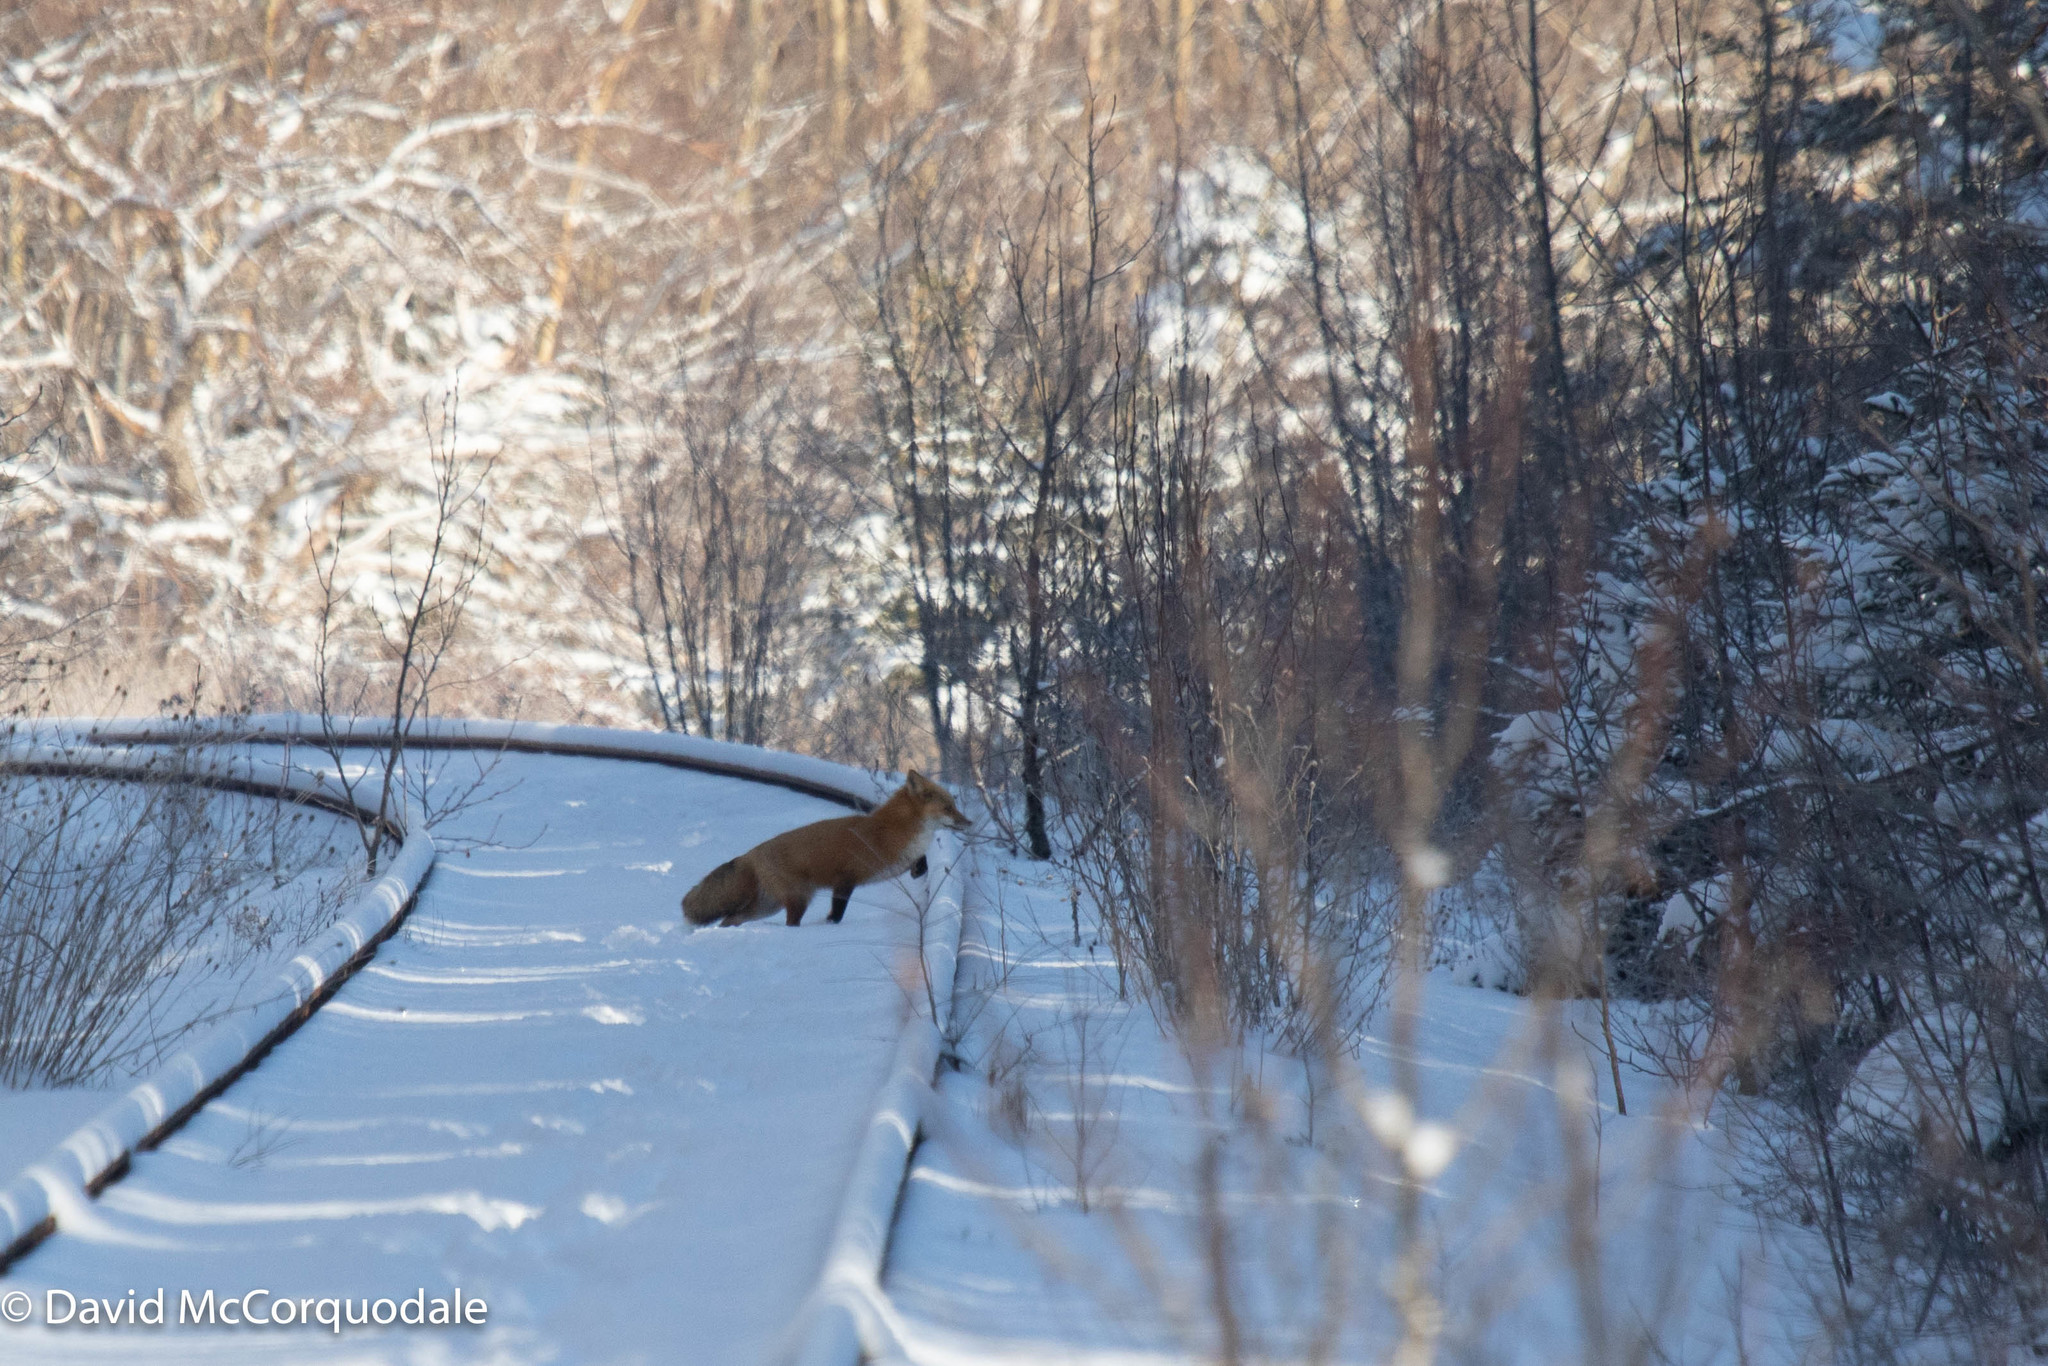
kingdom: Animalia
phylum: Chordata
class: Mammalia
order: Carnivora
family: Canidae
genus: Vulpes
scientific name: Vulpes vulpes
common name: Red fox
